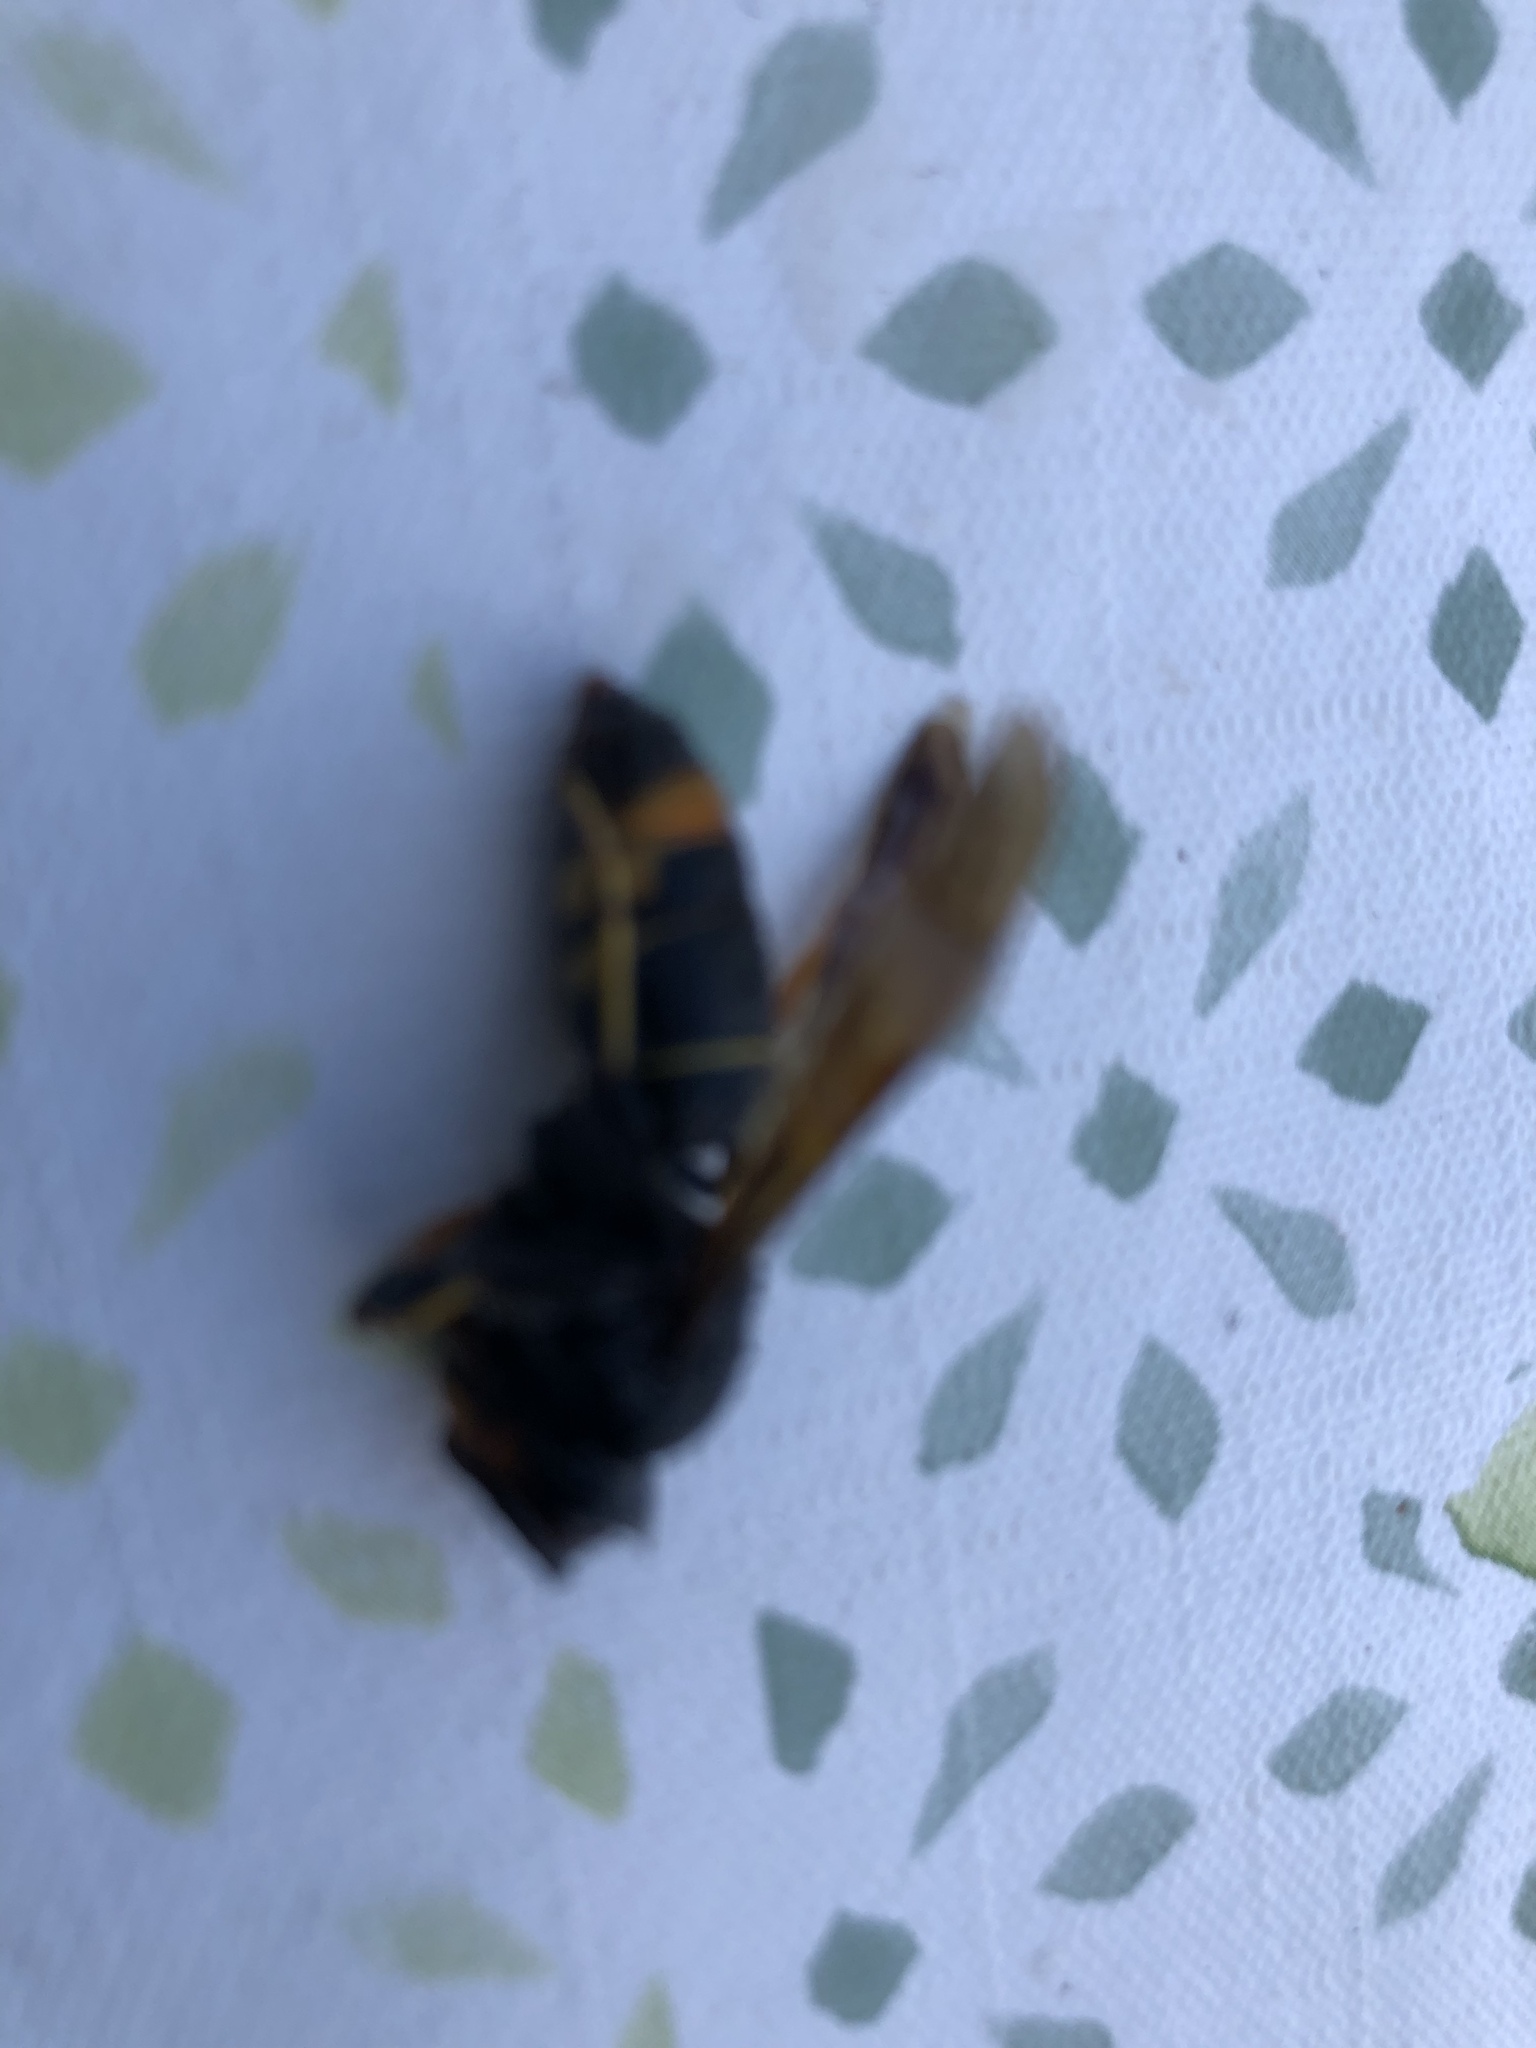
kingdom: Animalia
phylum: Arthropoda
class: Insecta
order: Hymenoptera
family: Vespidae
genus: Vespa
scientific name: Vespa velutina
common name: Asian hornet
